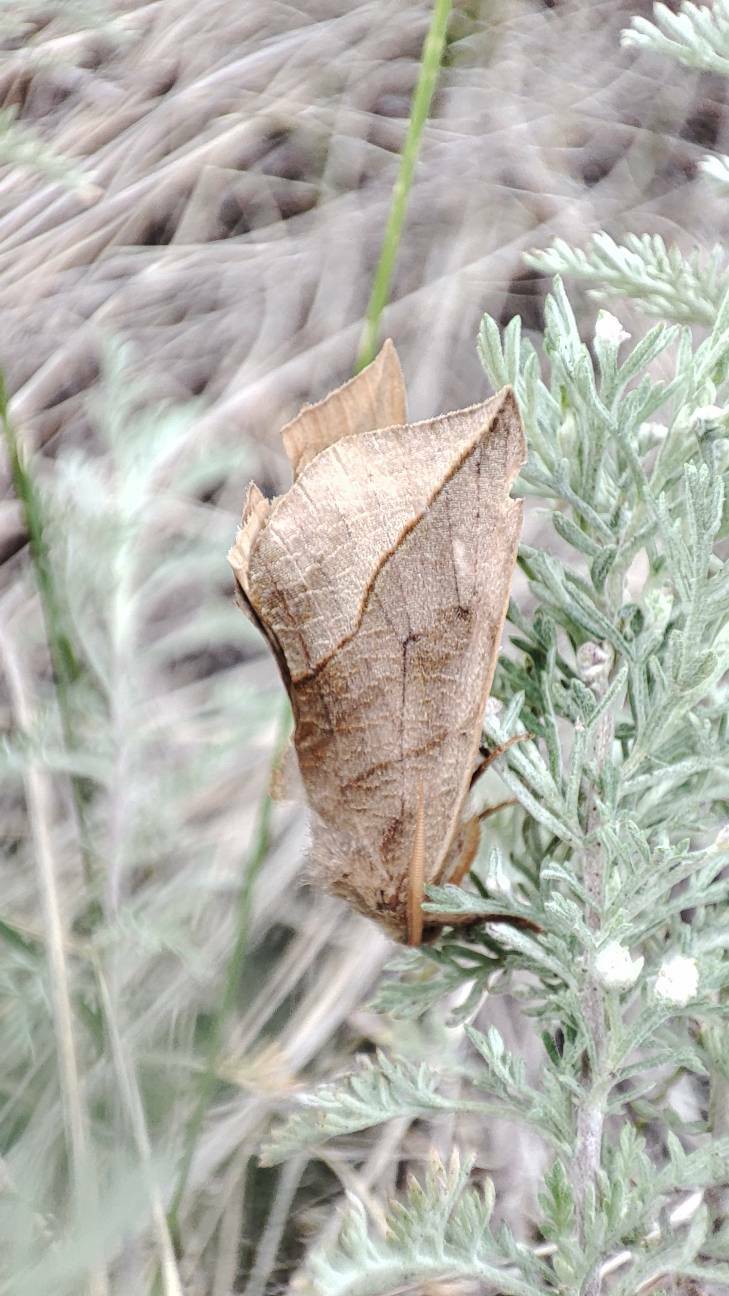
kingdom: Animalia
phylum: Arthropoda
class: Insecta
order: Lepidoptera
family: Erebidae
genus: Calyptra
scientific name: Calyptra thalictri
